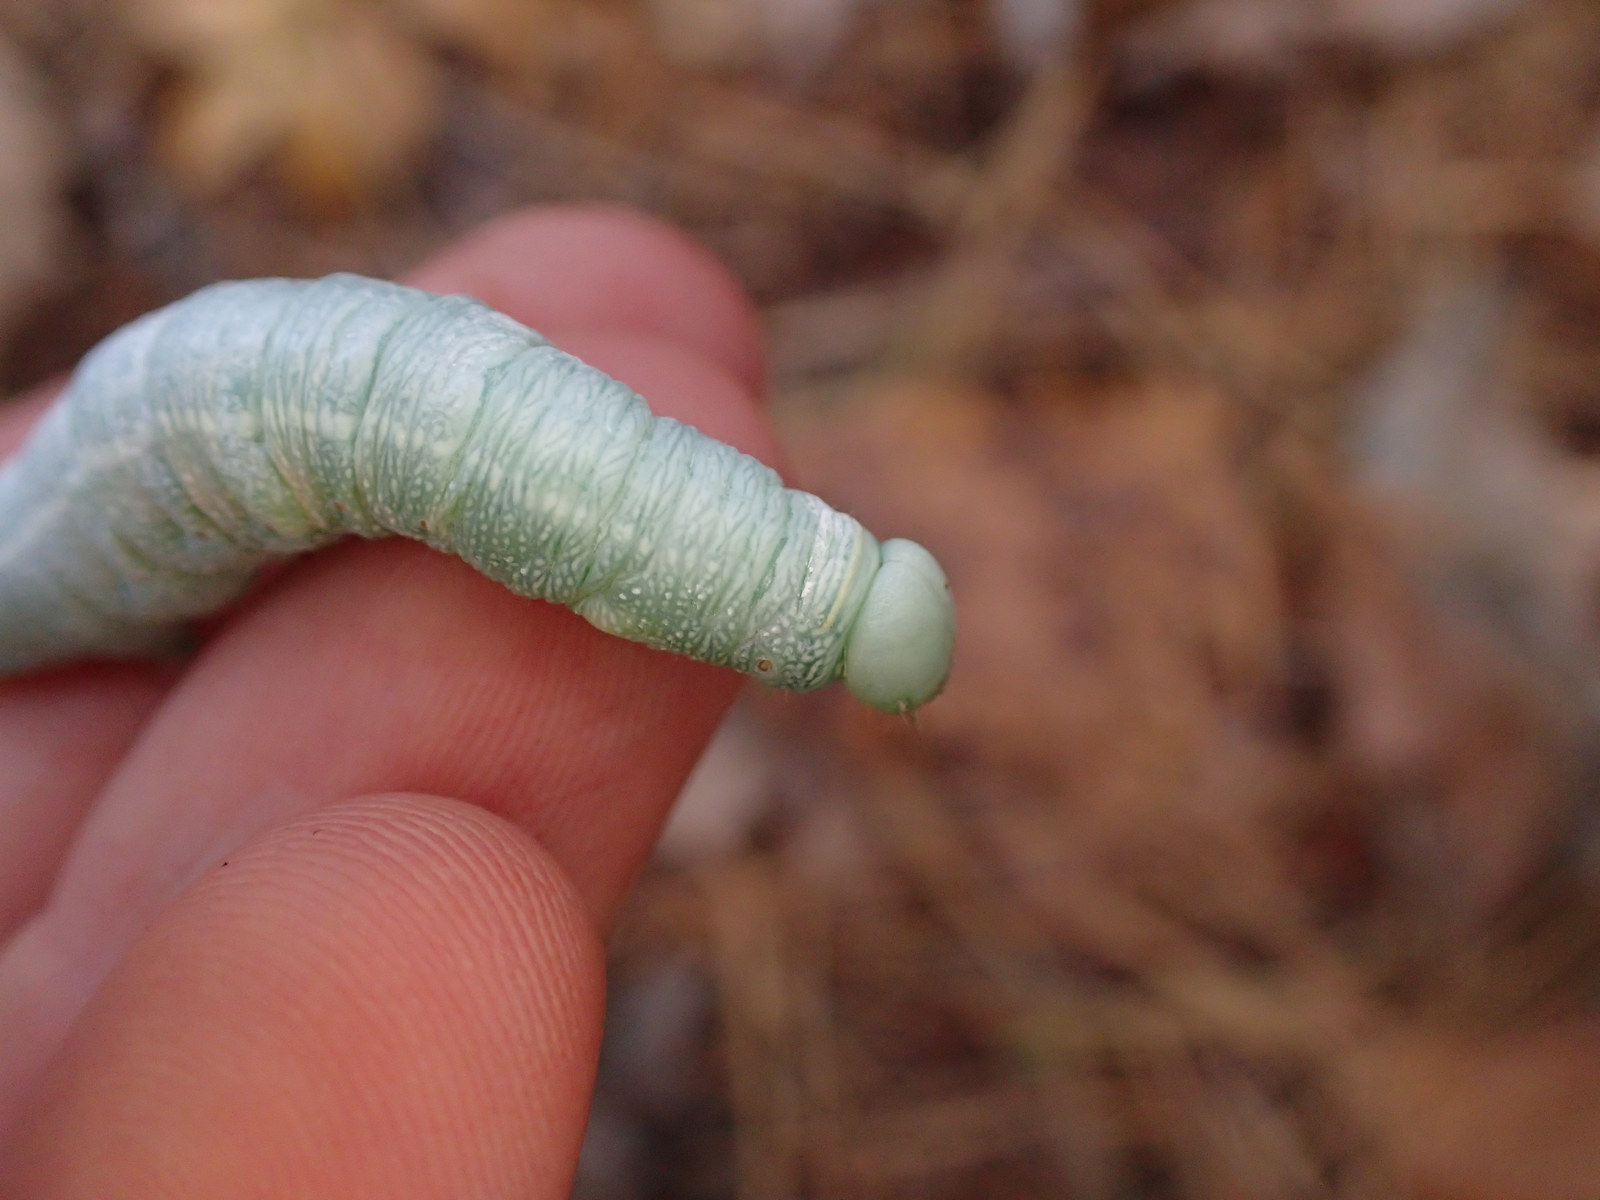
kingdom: Animalia
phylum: Arthropoda
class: Insecta
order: Lepidoptera
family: Notodontidae
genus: Nadata
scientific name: Nadata gibbosa
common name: White-dotted prominent
